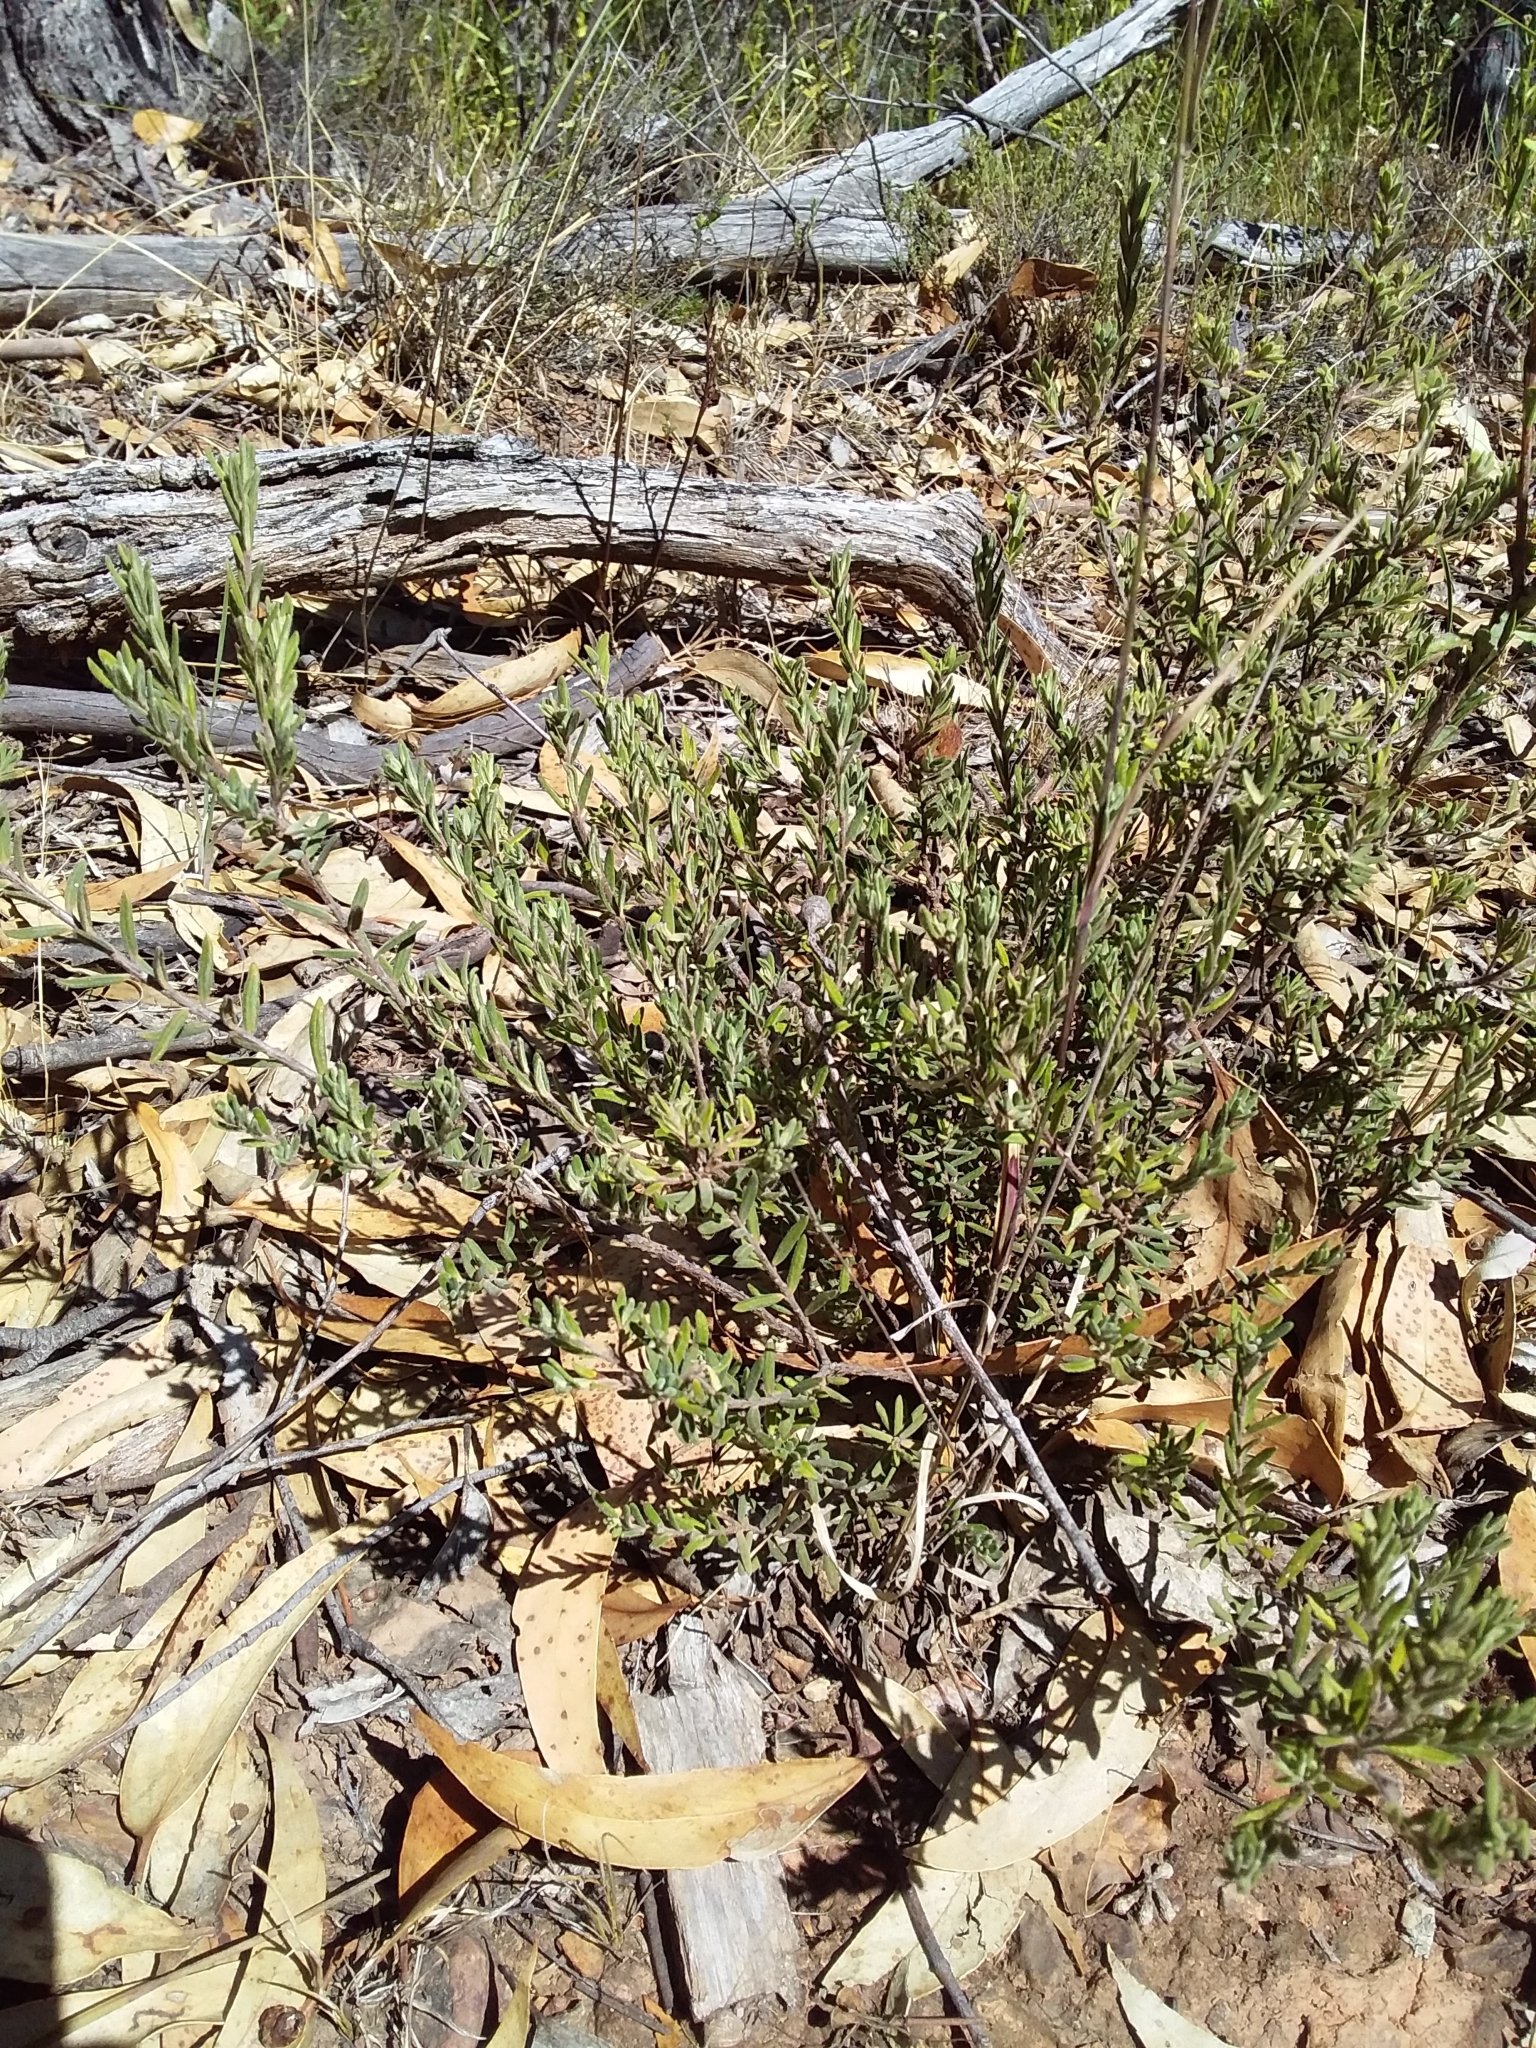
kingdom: Plantae
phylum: Tracheophyta
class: Magnoliopsida
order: Dilleniales
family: Dilleniaceae
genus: Hibbertia
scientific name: Hibbertia crinita
